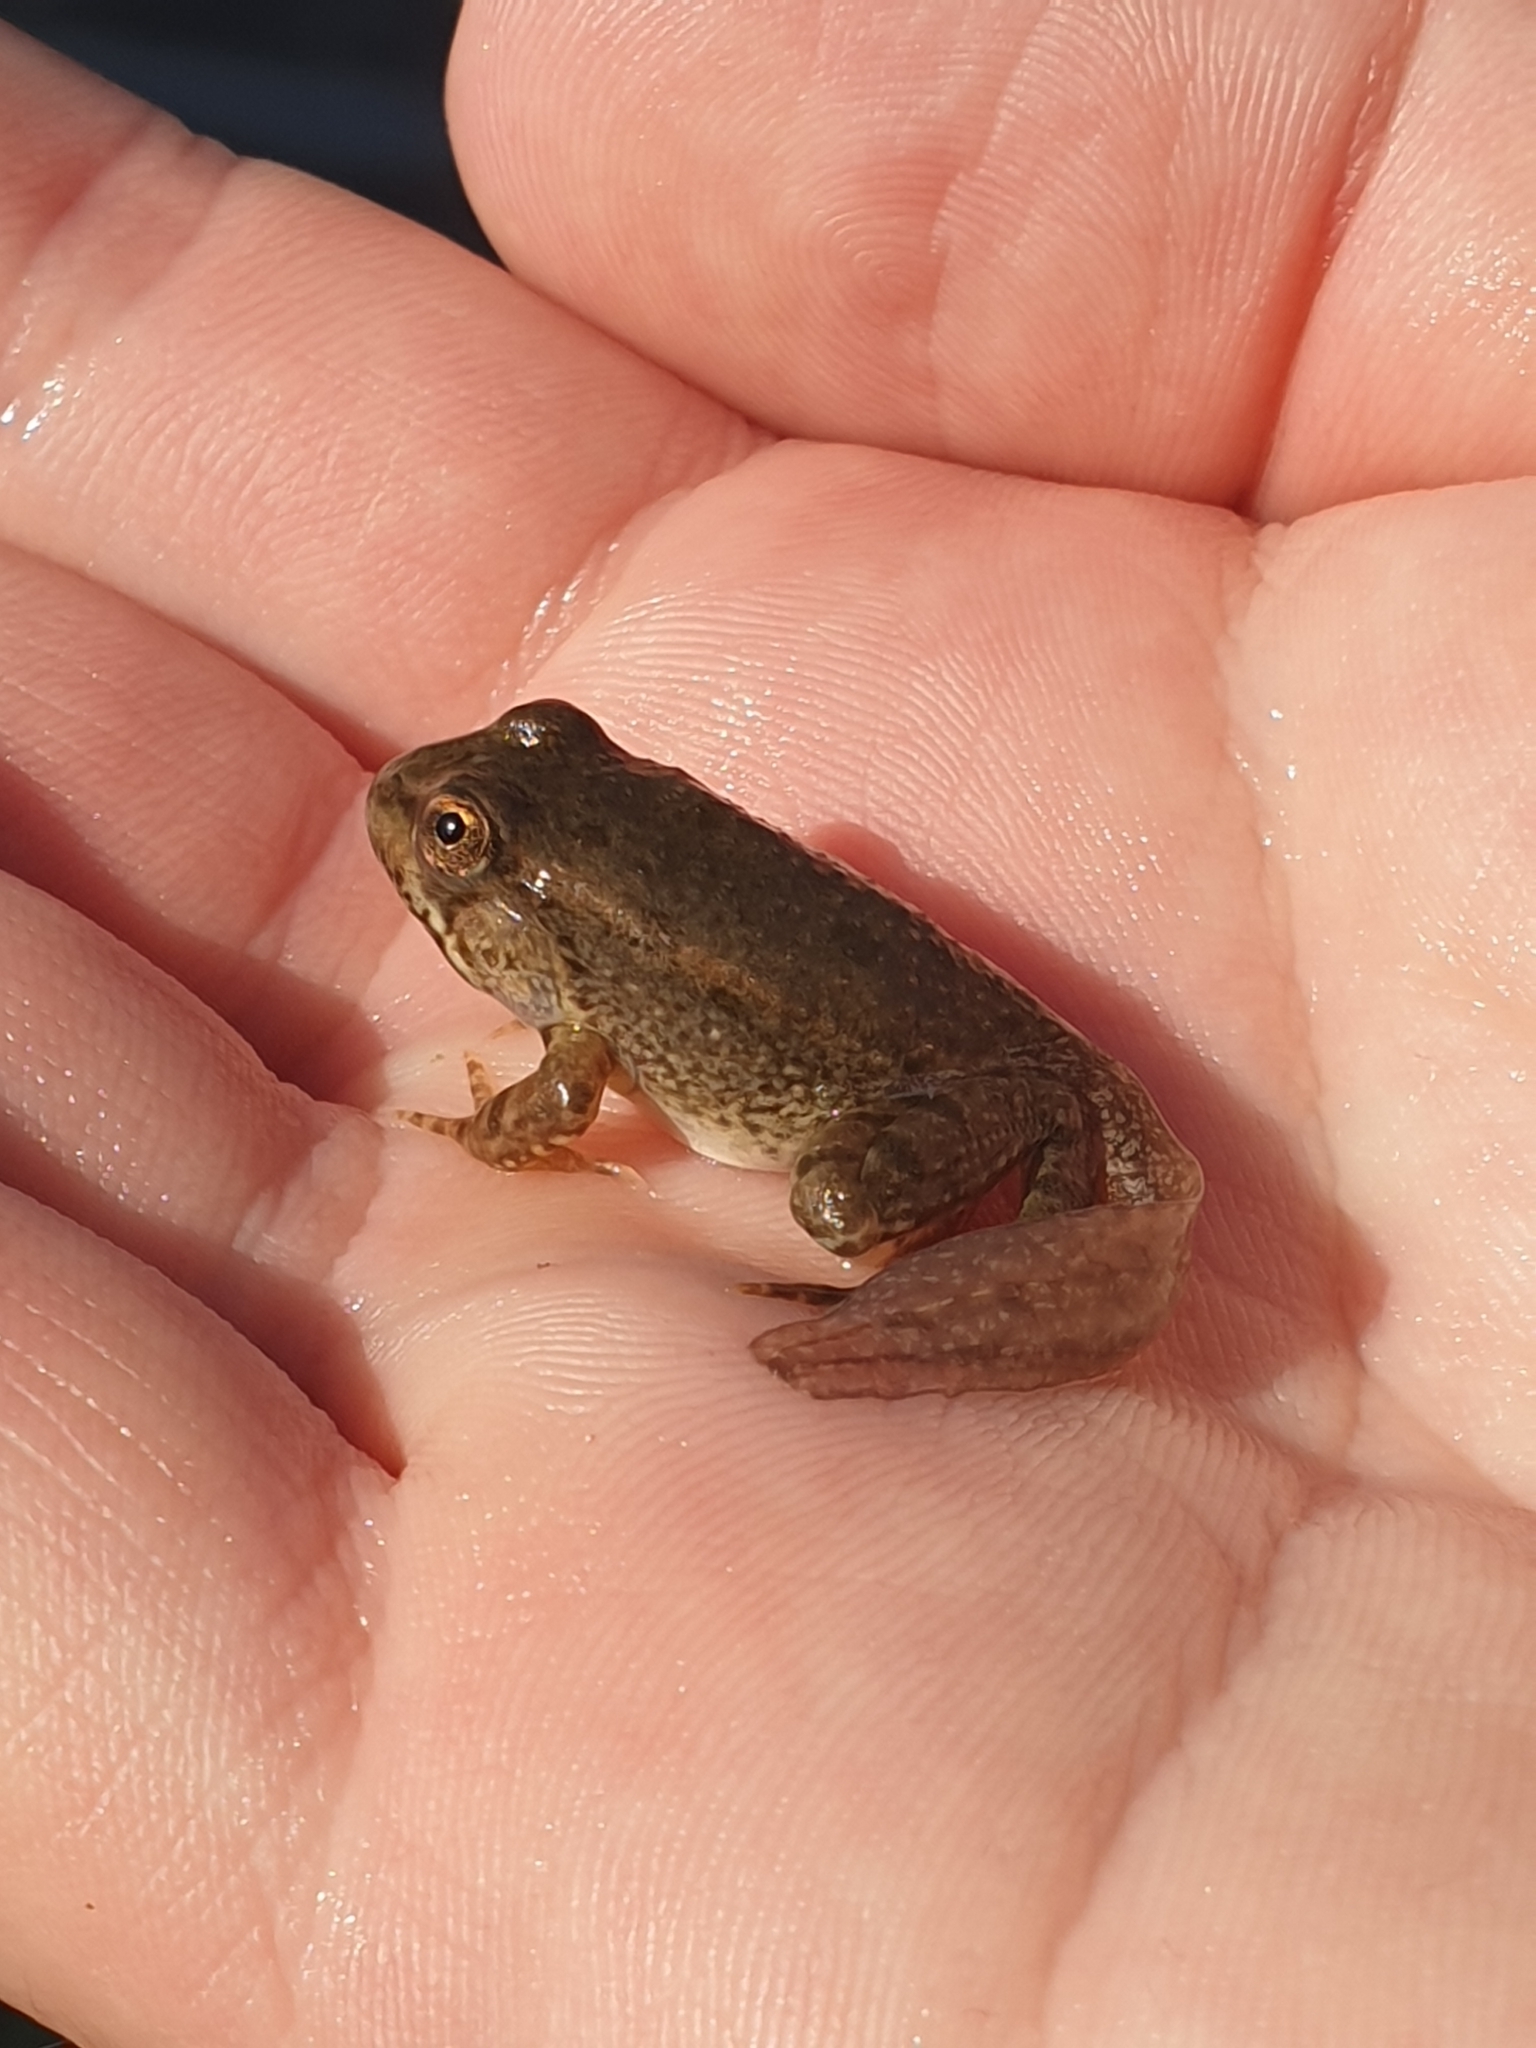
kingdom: Animalia
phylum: Chordata
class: Amphibia
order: Anura
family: Ranidae
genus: Pelophylax
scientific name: Pelophylax
